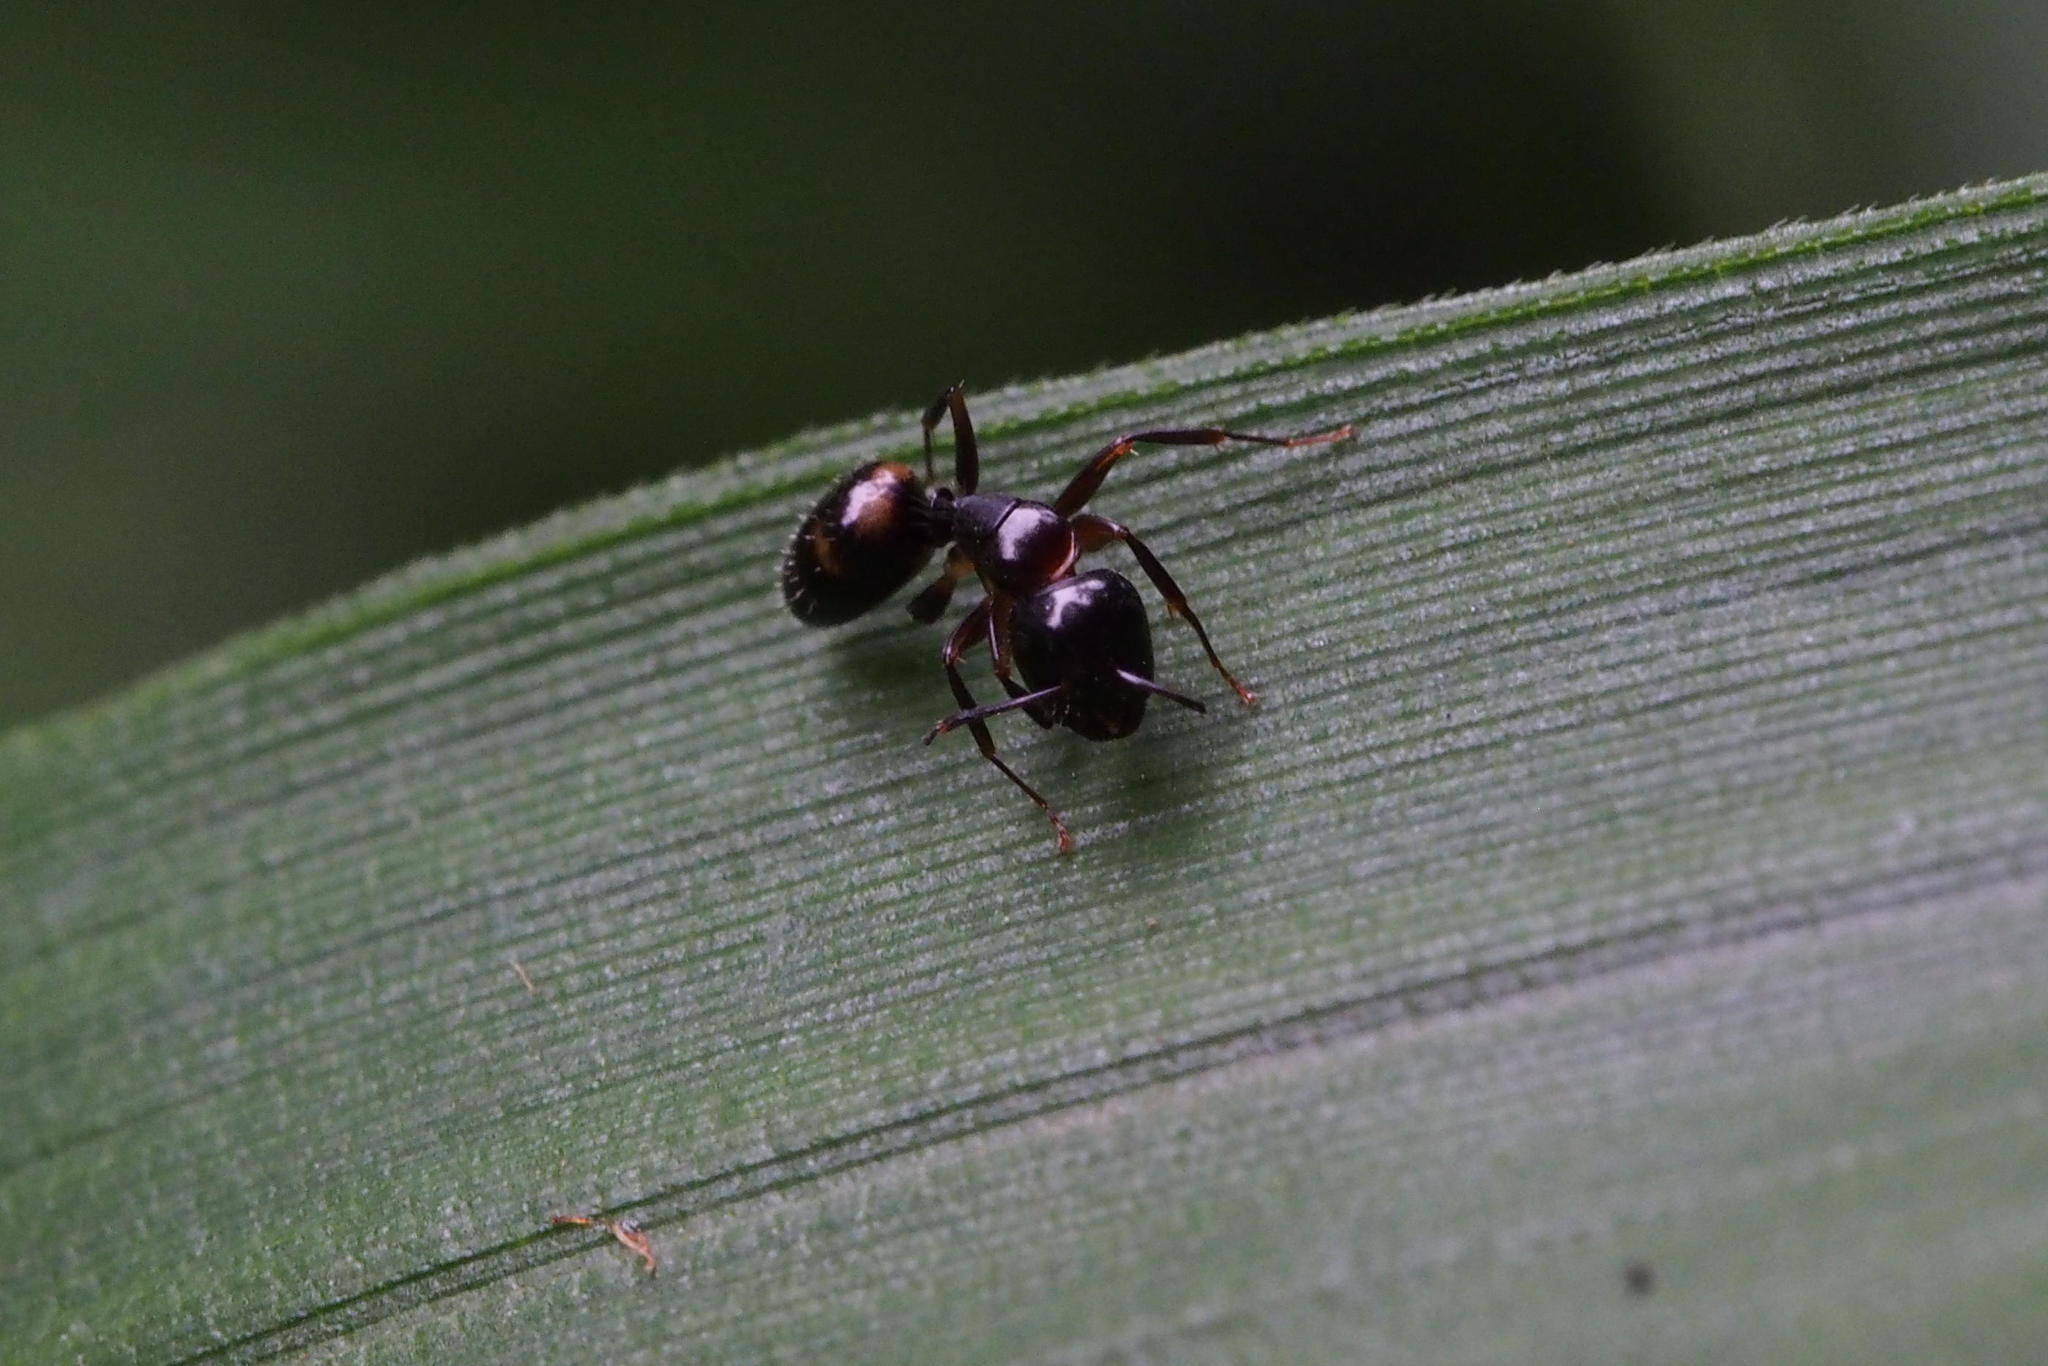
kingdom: Animalia
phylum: Arthropoda
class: Insecta
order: Hymenoptera
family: Formicidae
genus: Camponotus
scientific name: Camponotus quadrinotatus
